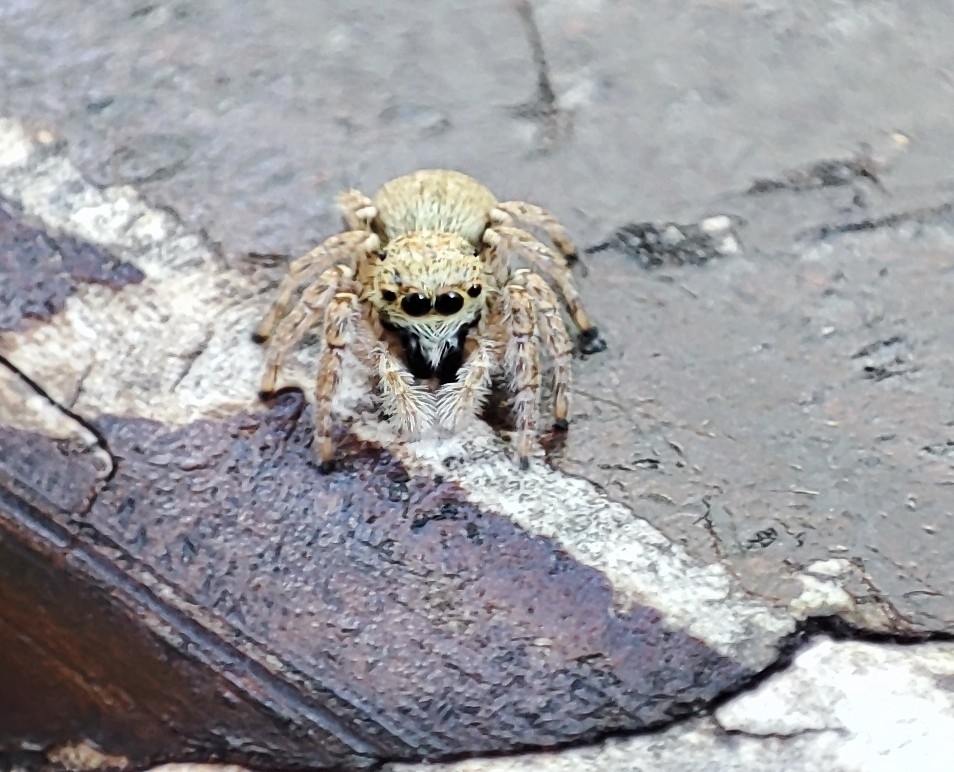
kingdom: Animalia
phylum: Arthropoda
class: Arachnida
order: Araneae
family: Salticidae
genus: Menemerus
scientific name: Menemerus semilimbatus
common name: Jumping spider
